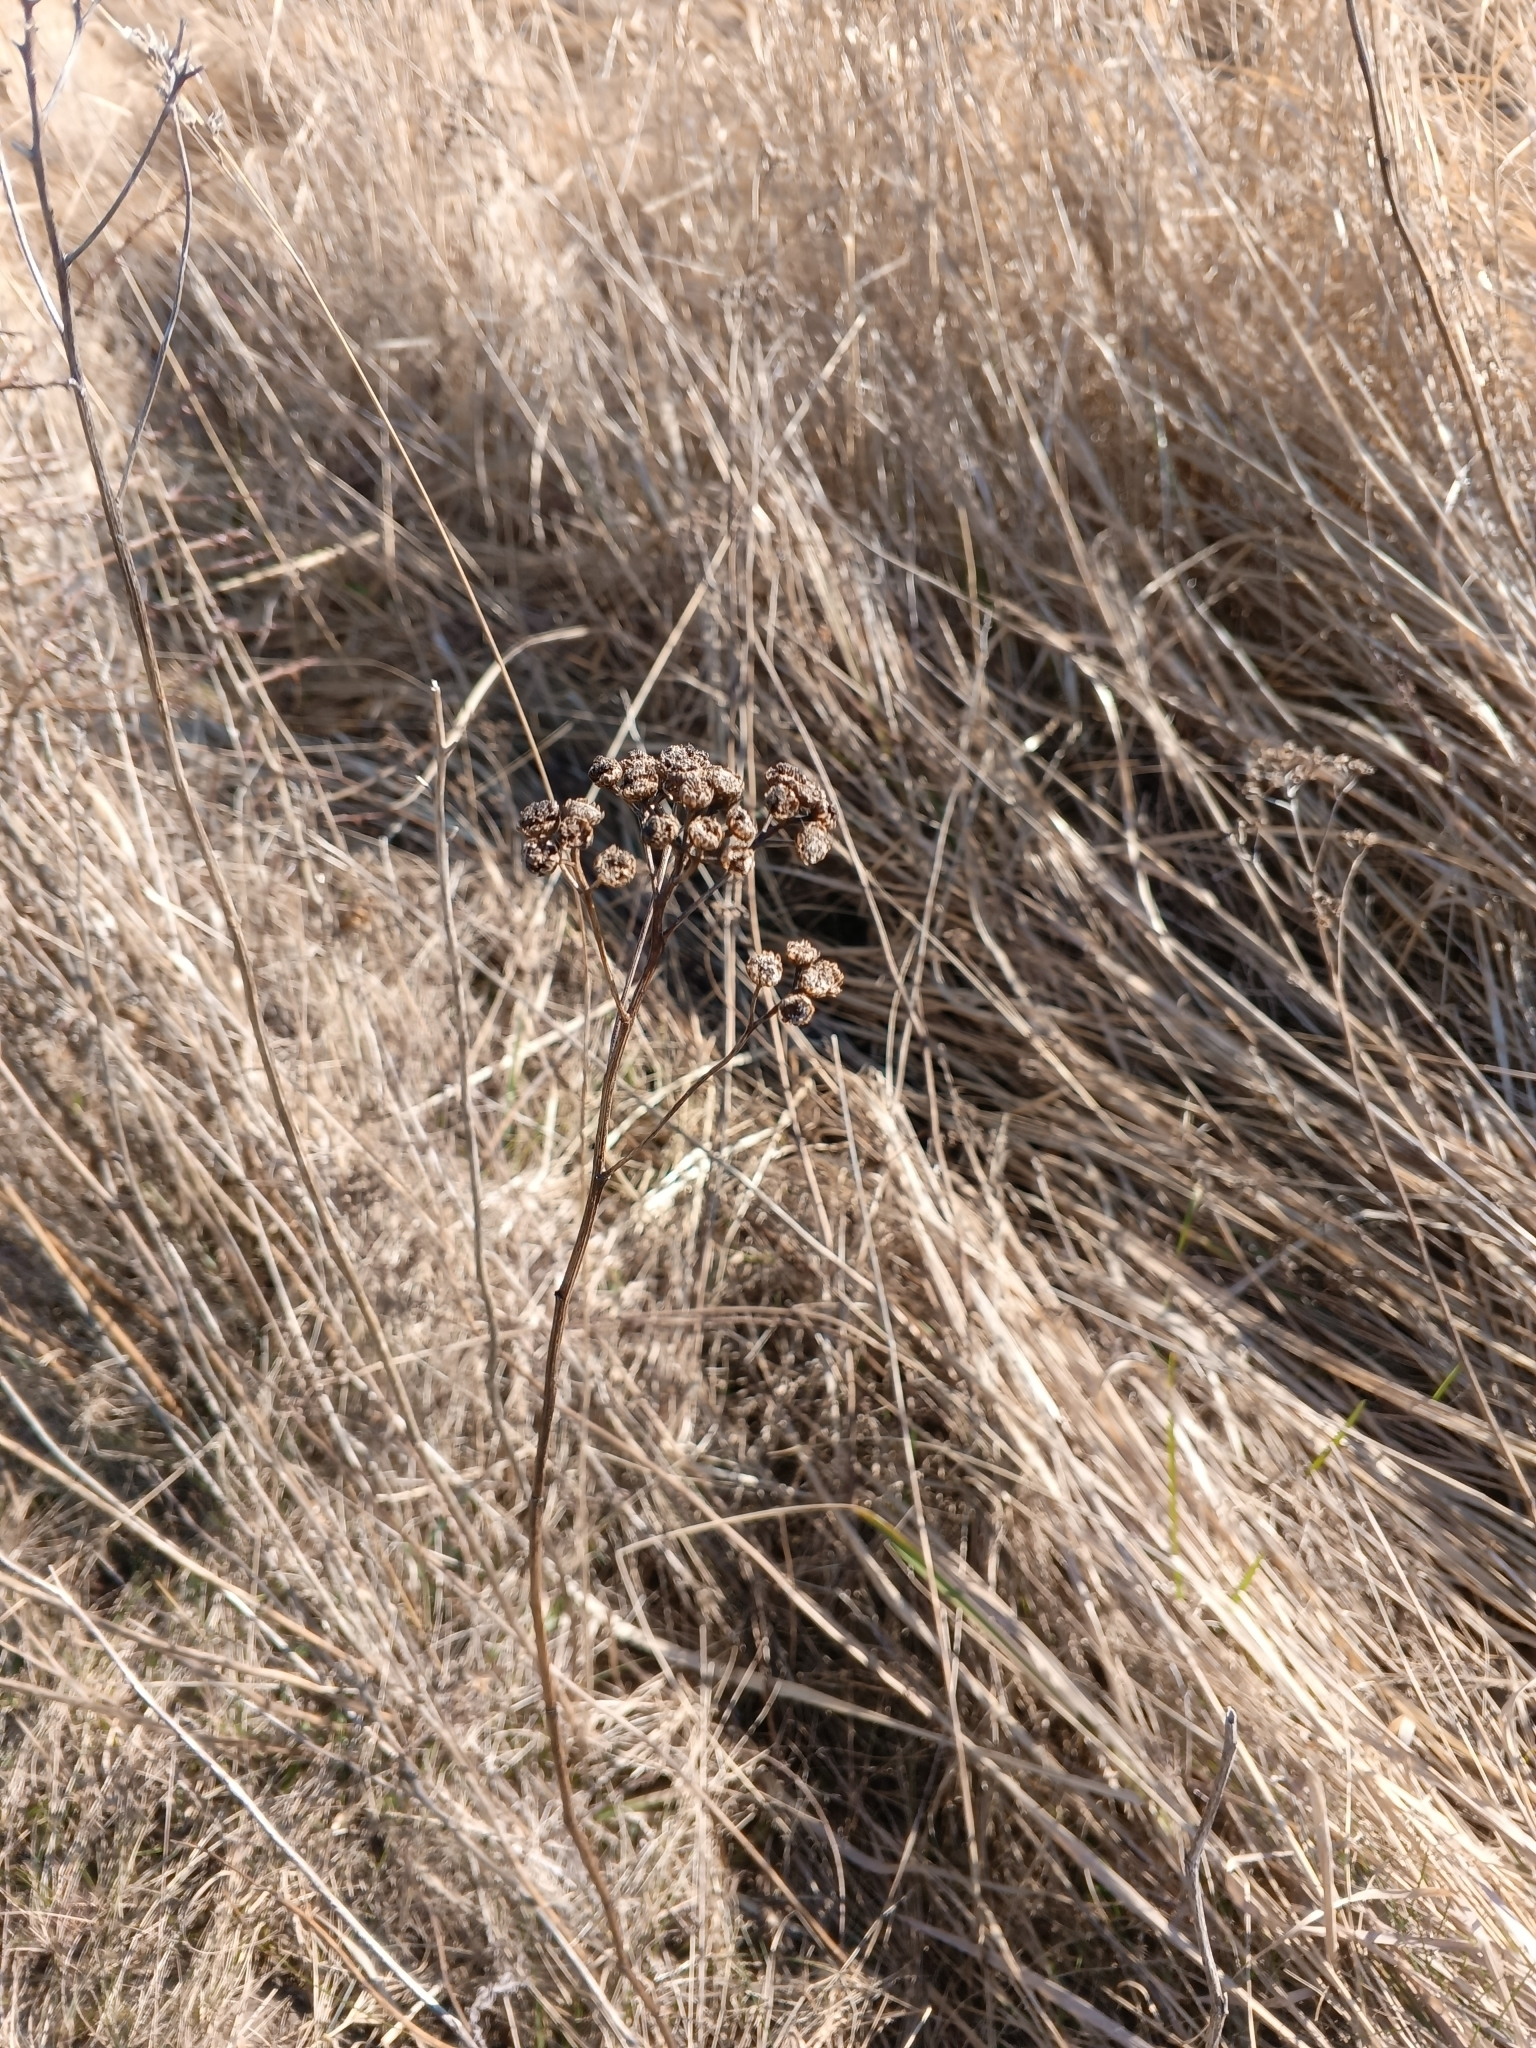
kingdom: Plantae
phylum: Tracheophyta
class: Magnoliopsida
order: Asterales
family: Asteraceae
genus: Tanacetum
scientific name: Tanacetum vulgare
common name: Common tansy
